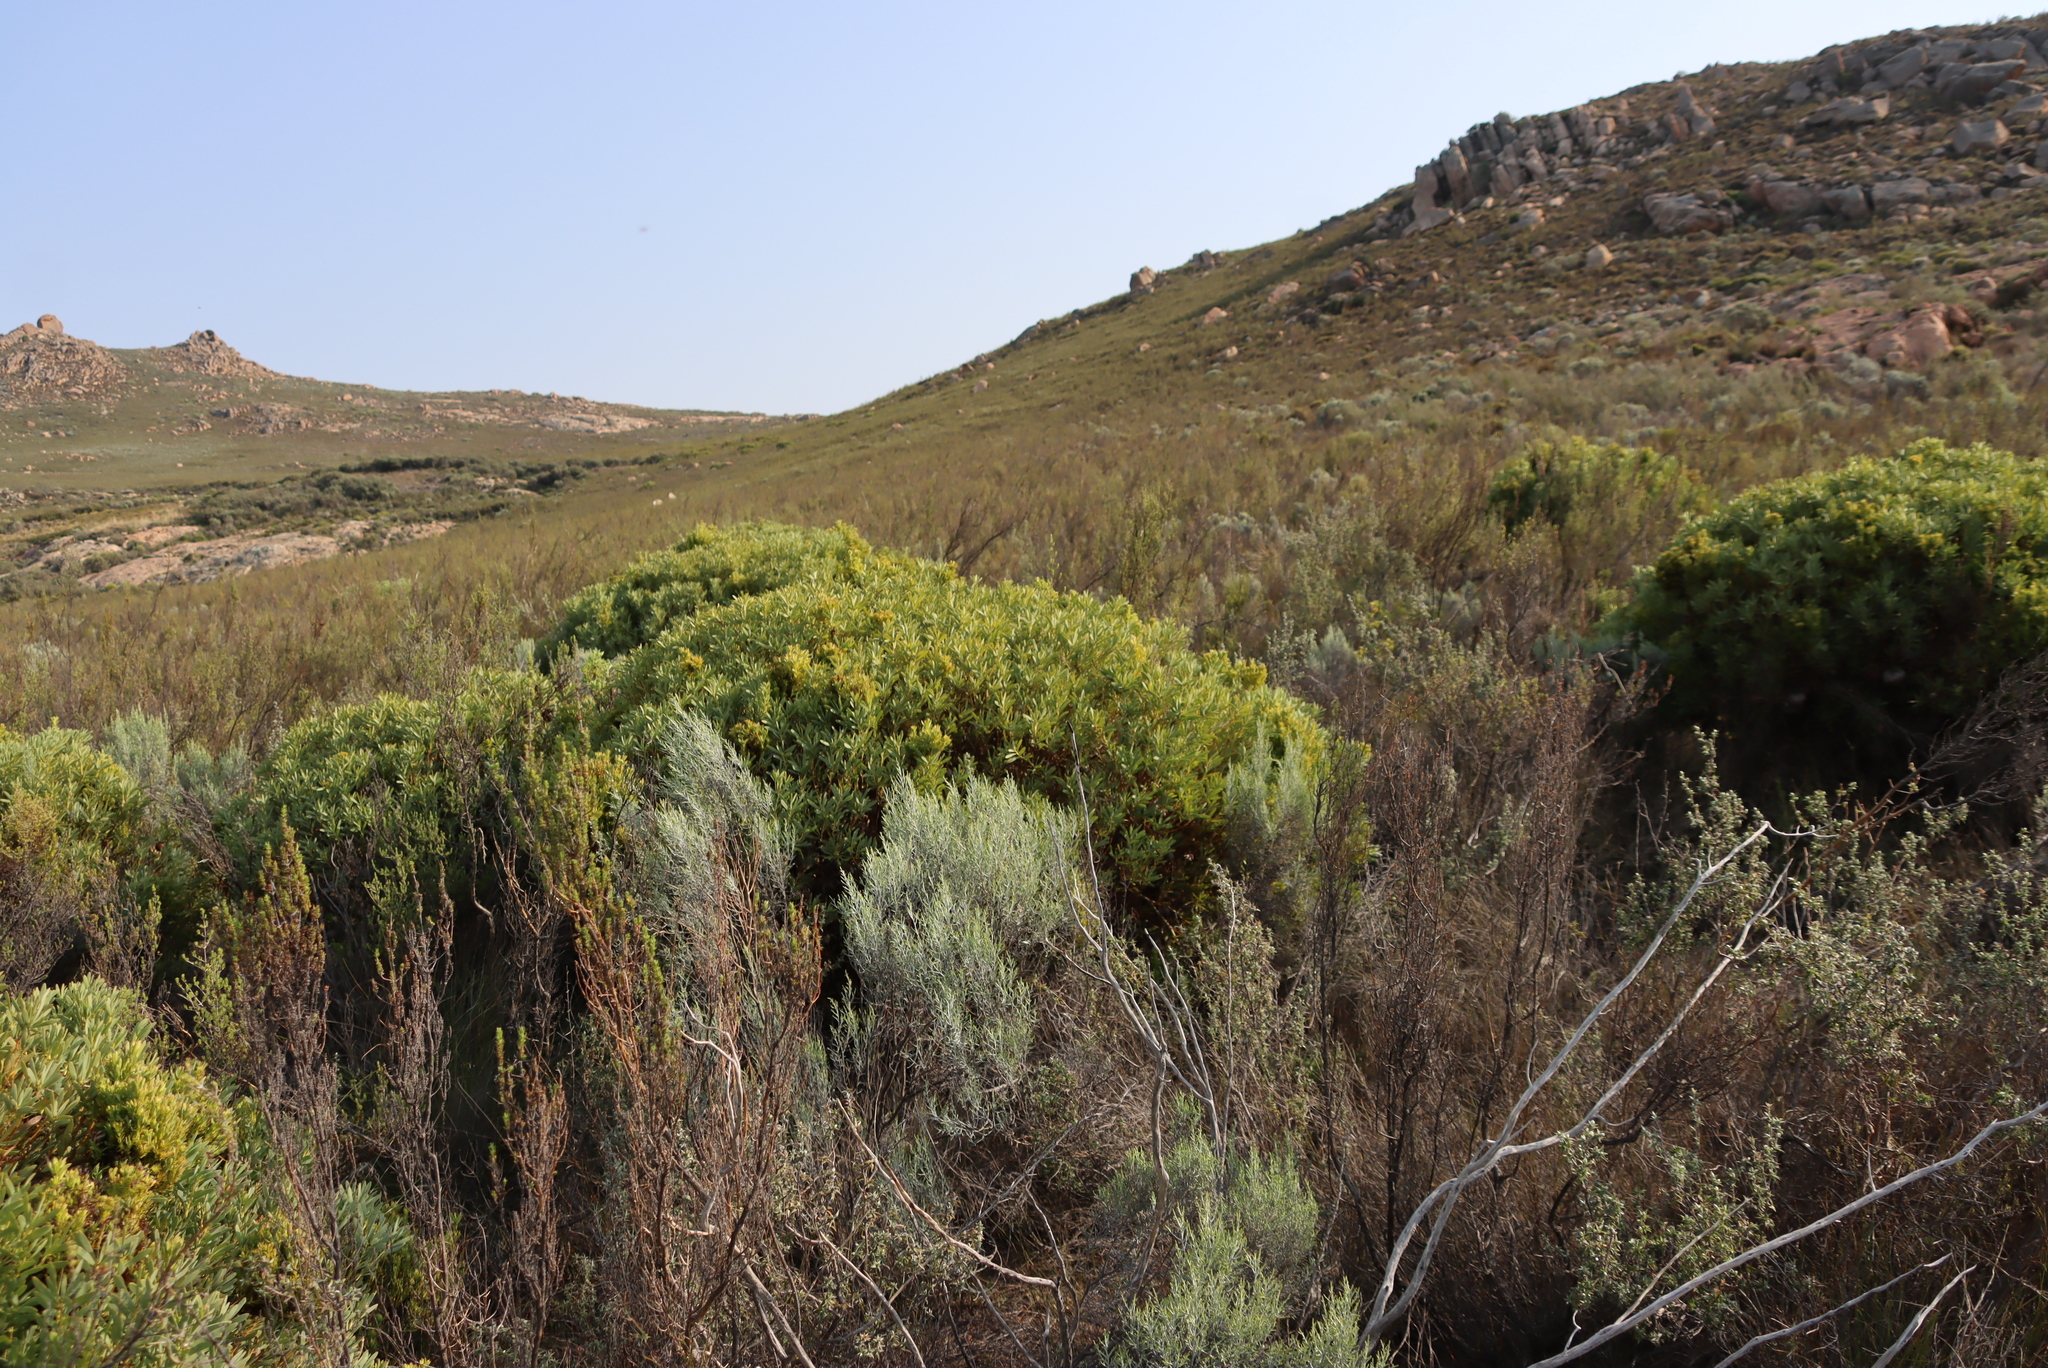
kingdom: Plantae
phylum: Tracheophyta
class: Magnoliopsida
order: Proteales
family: Proteaceae
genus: Protea
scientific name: Protea namaquana
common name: Kamiesberg sugarbush
